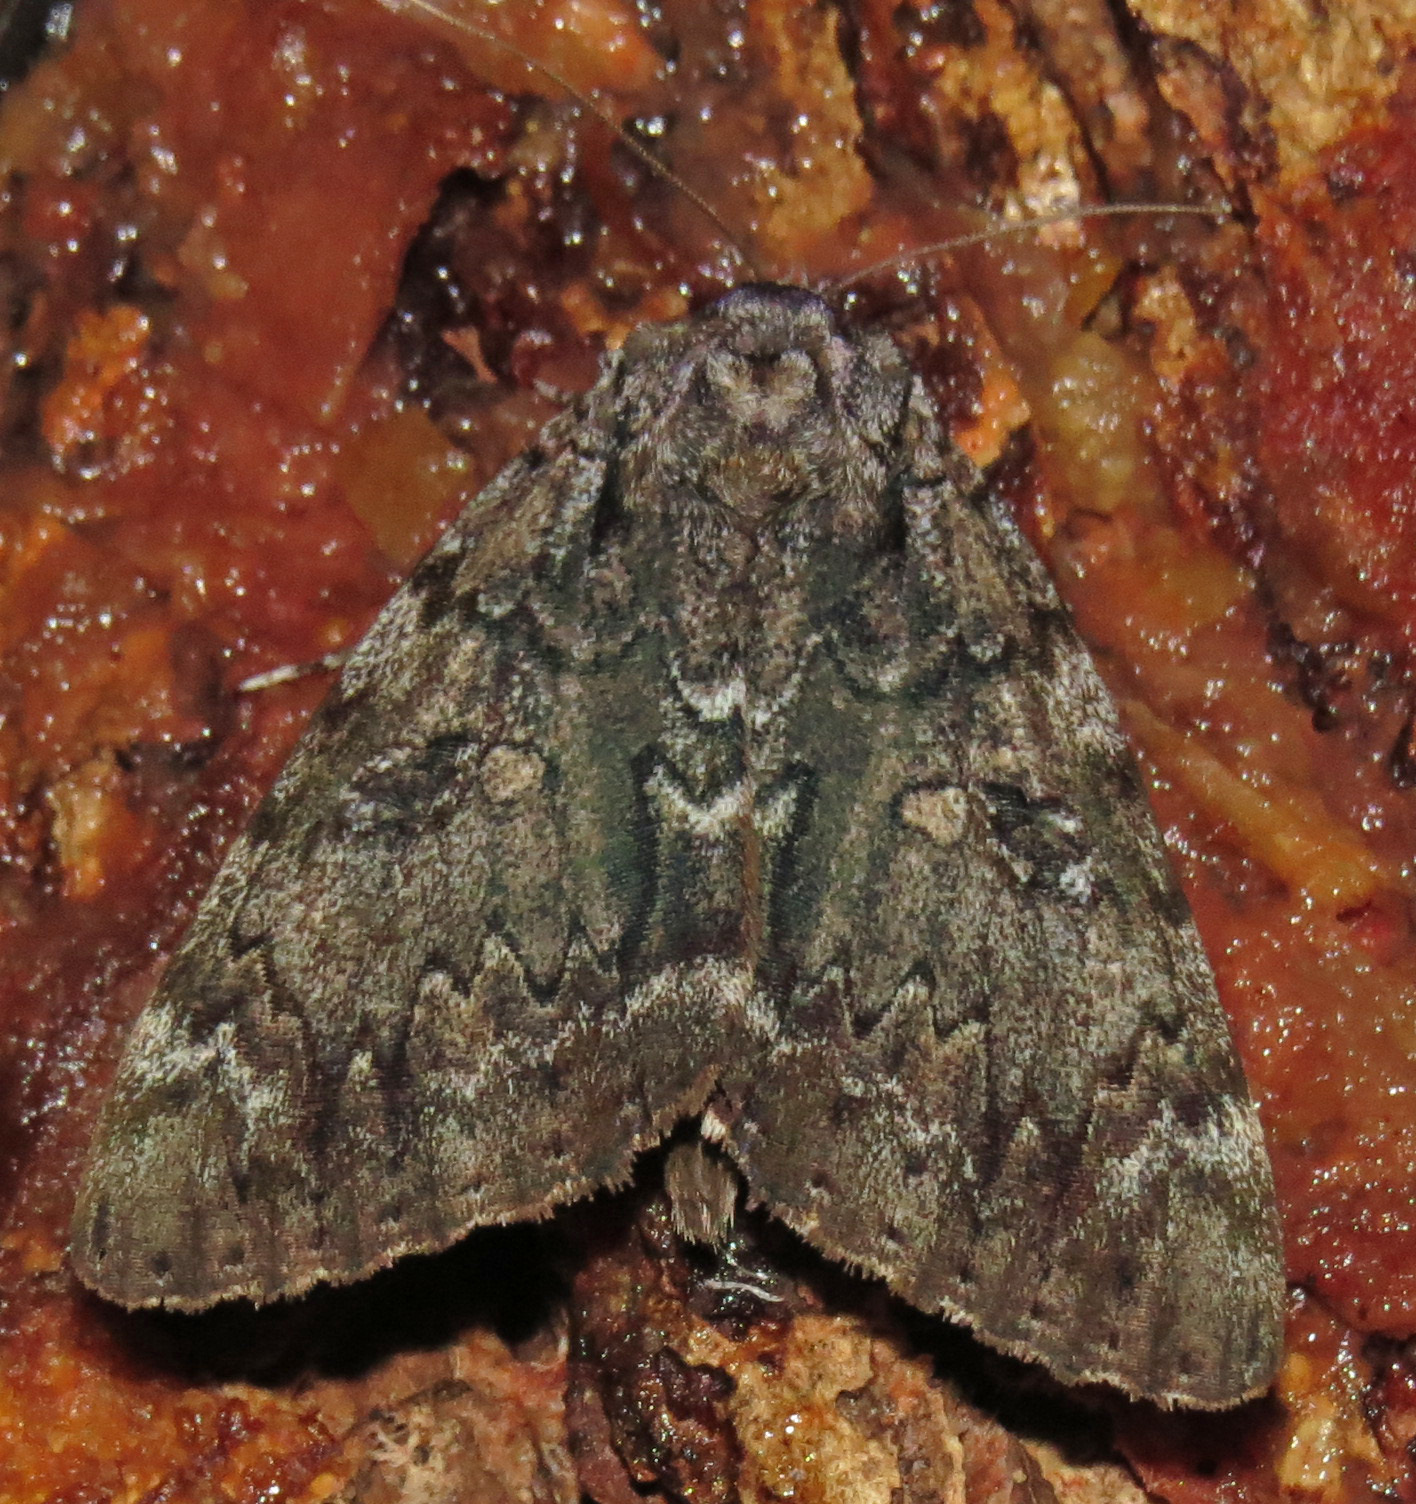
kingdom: Animalia
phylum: Arthropoda
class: Insecta
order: Lepidoptera
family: Erebidae
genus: Catocala
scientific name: Catocala lacrymosa
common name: Tearful underwing
